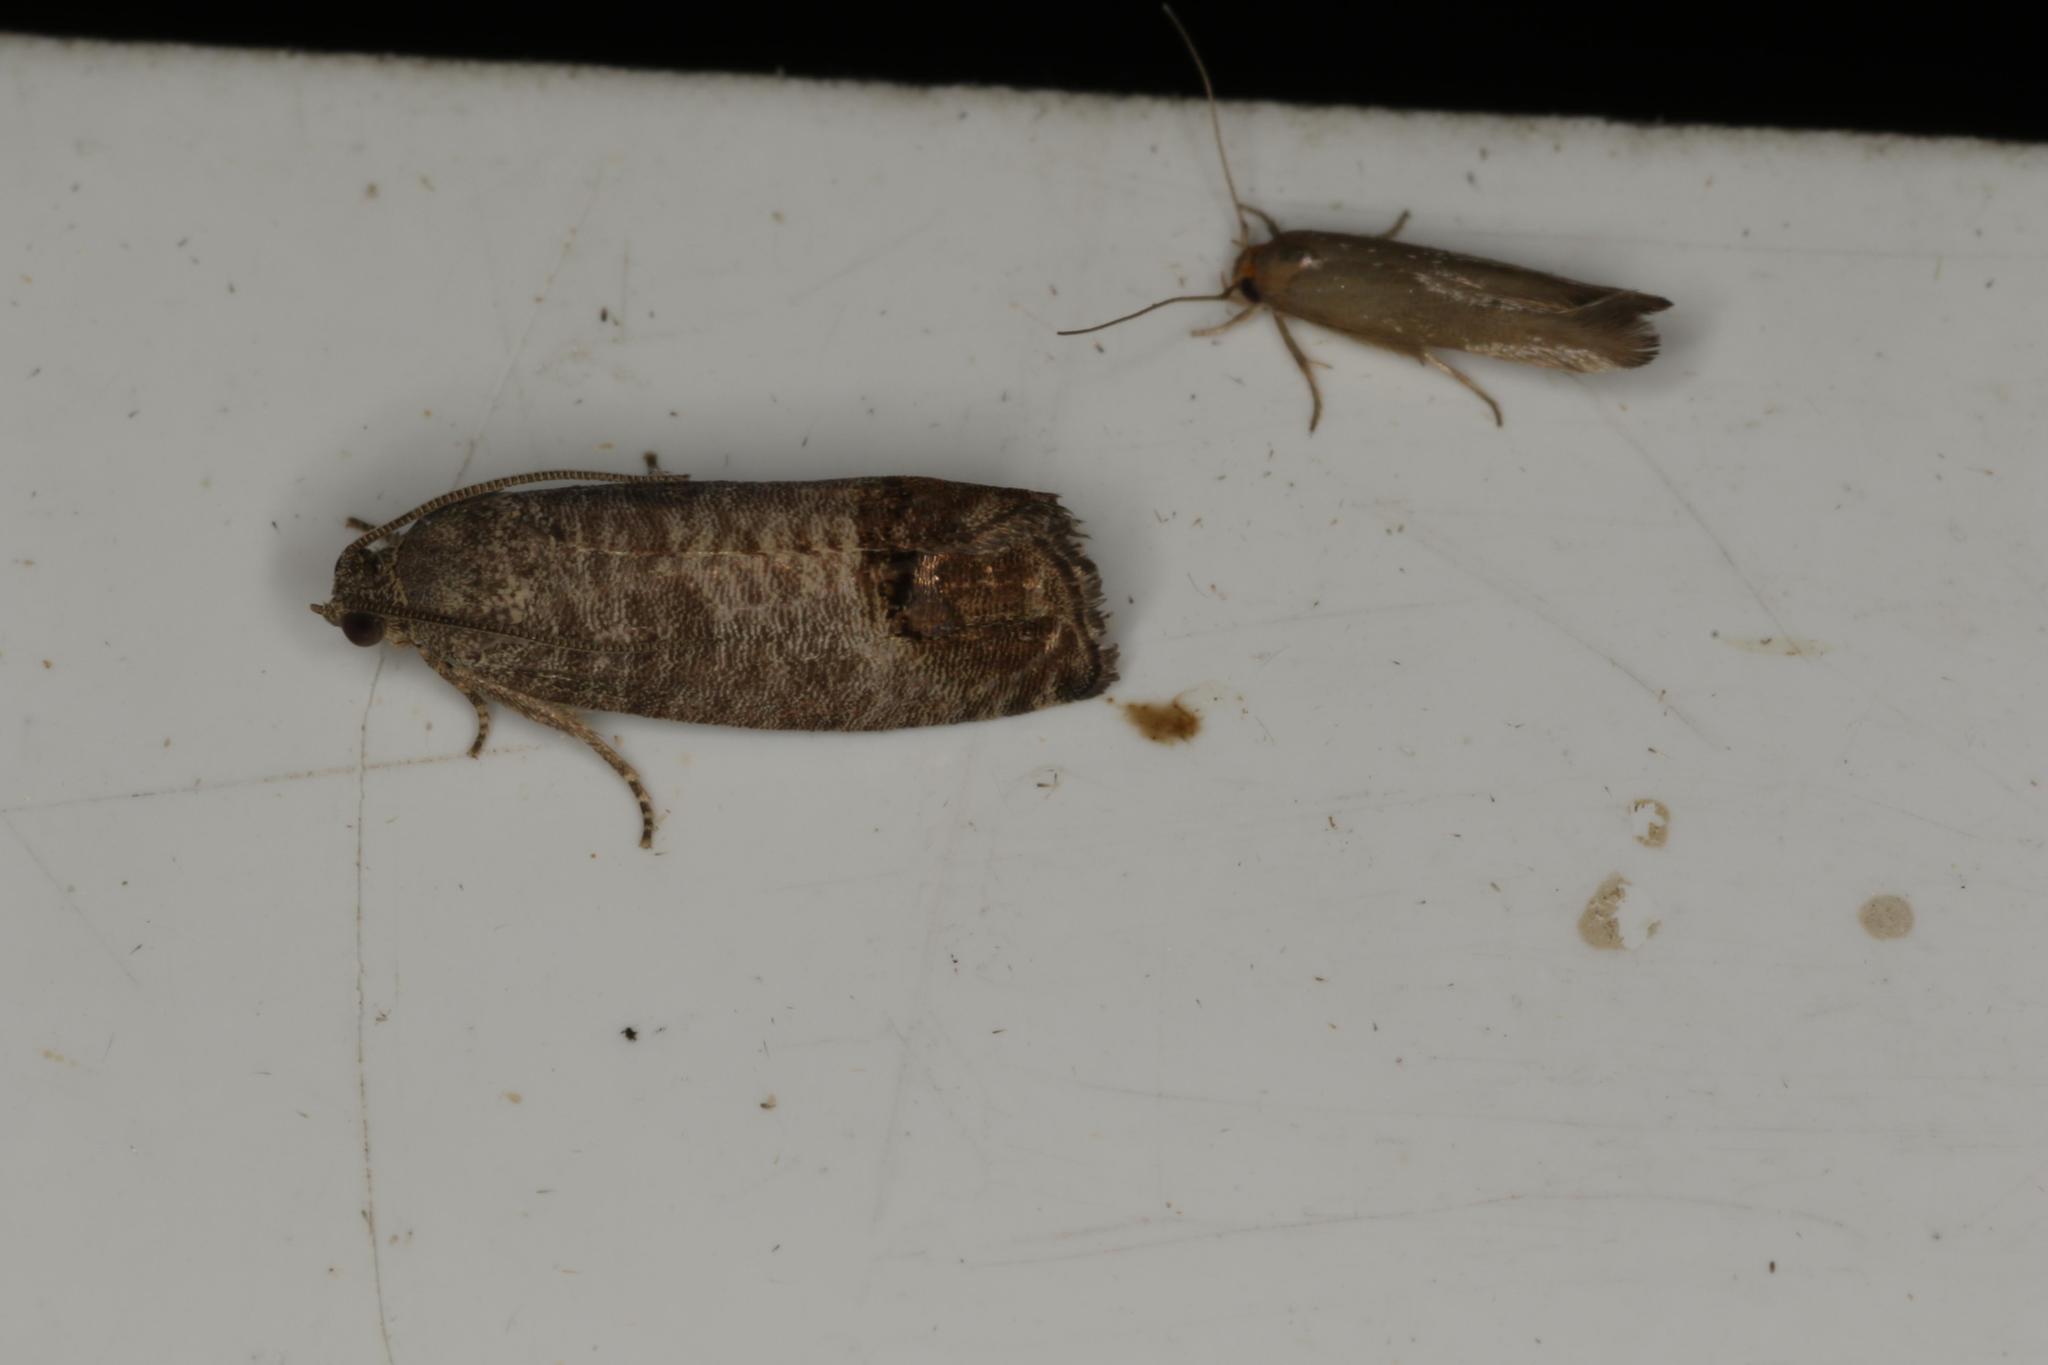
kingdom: Animalia
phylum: Arthropoda
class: Insecta
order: Lepidoptera
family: Tortricidae
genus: Cydia
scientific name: Cydia pomonella
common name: Codling moth
